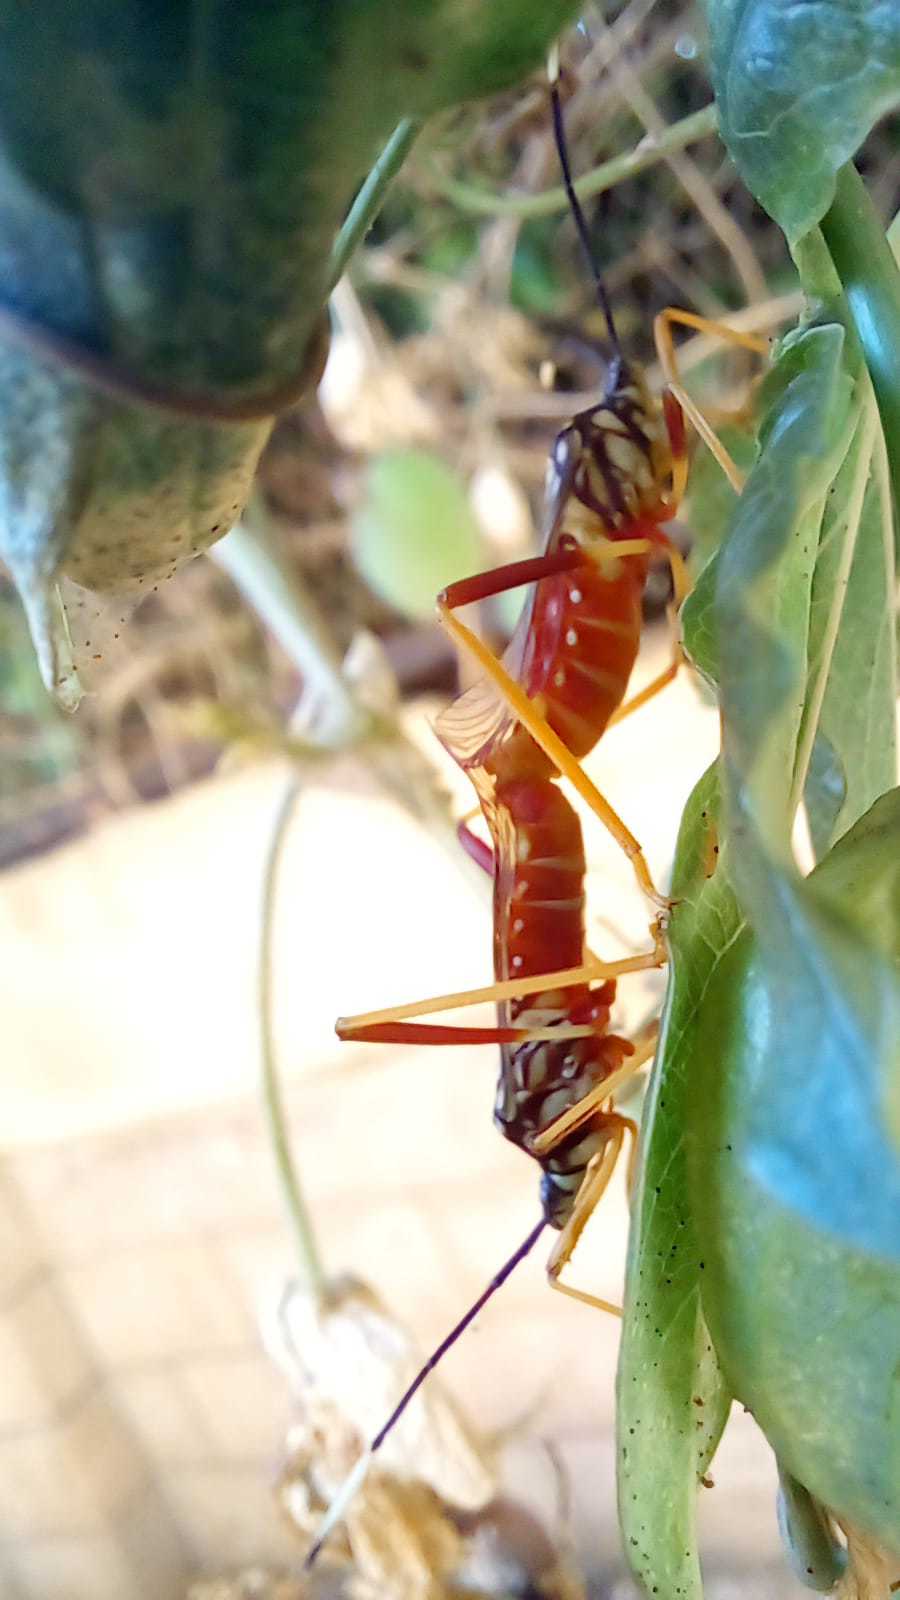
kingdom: Animalia
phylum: Arthropoda
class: Insecta
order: Hemiptera
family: Coreidae
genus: Holhymenia
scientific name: Holhymenia histrio
